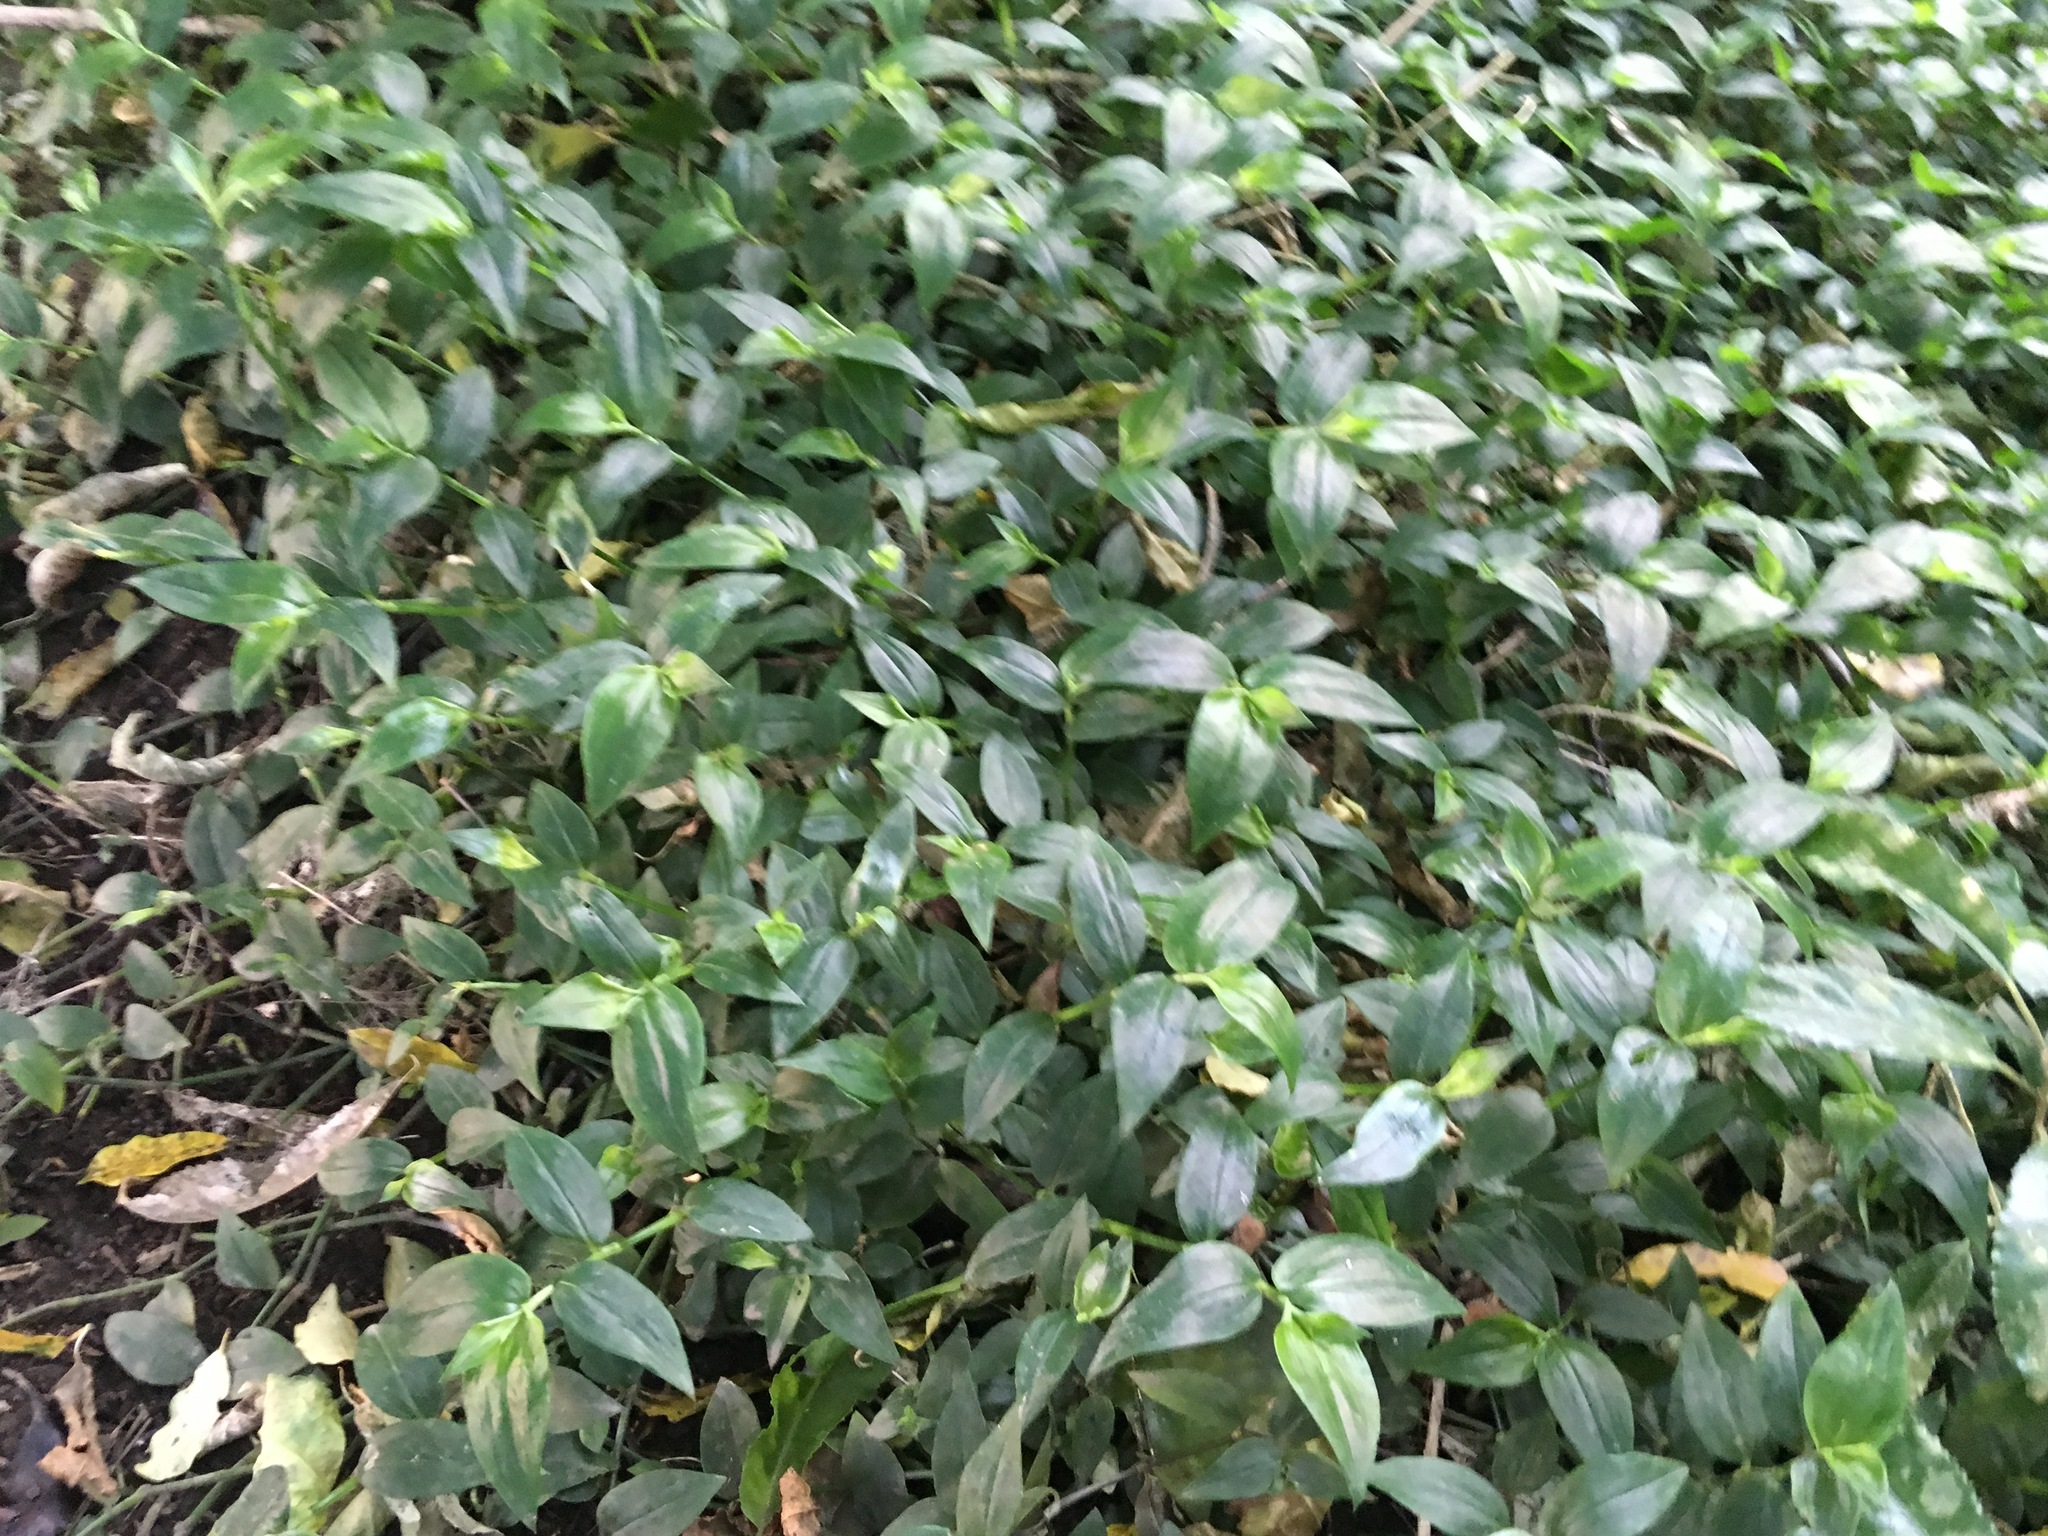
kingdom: Plantae
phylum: Tracheophyta
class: Liliopsida
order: Commelinales
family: Commelinaceae
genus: Tradescantia
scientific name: Tradescantia fluminensis
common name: Wandering-jew
